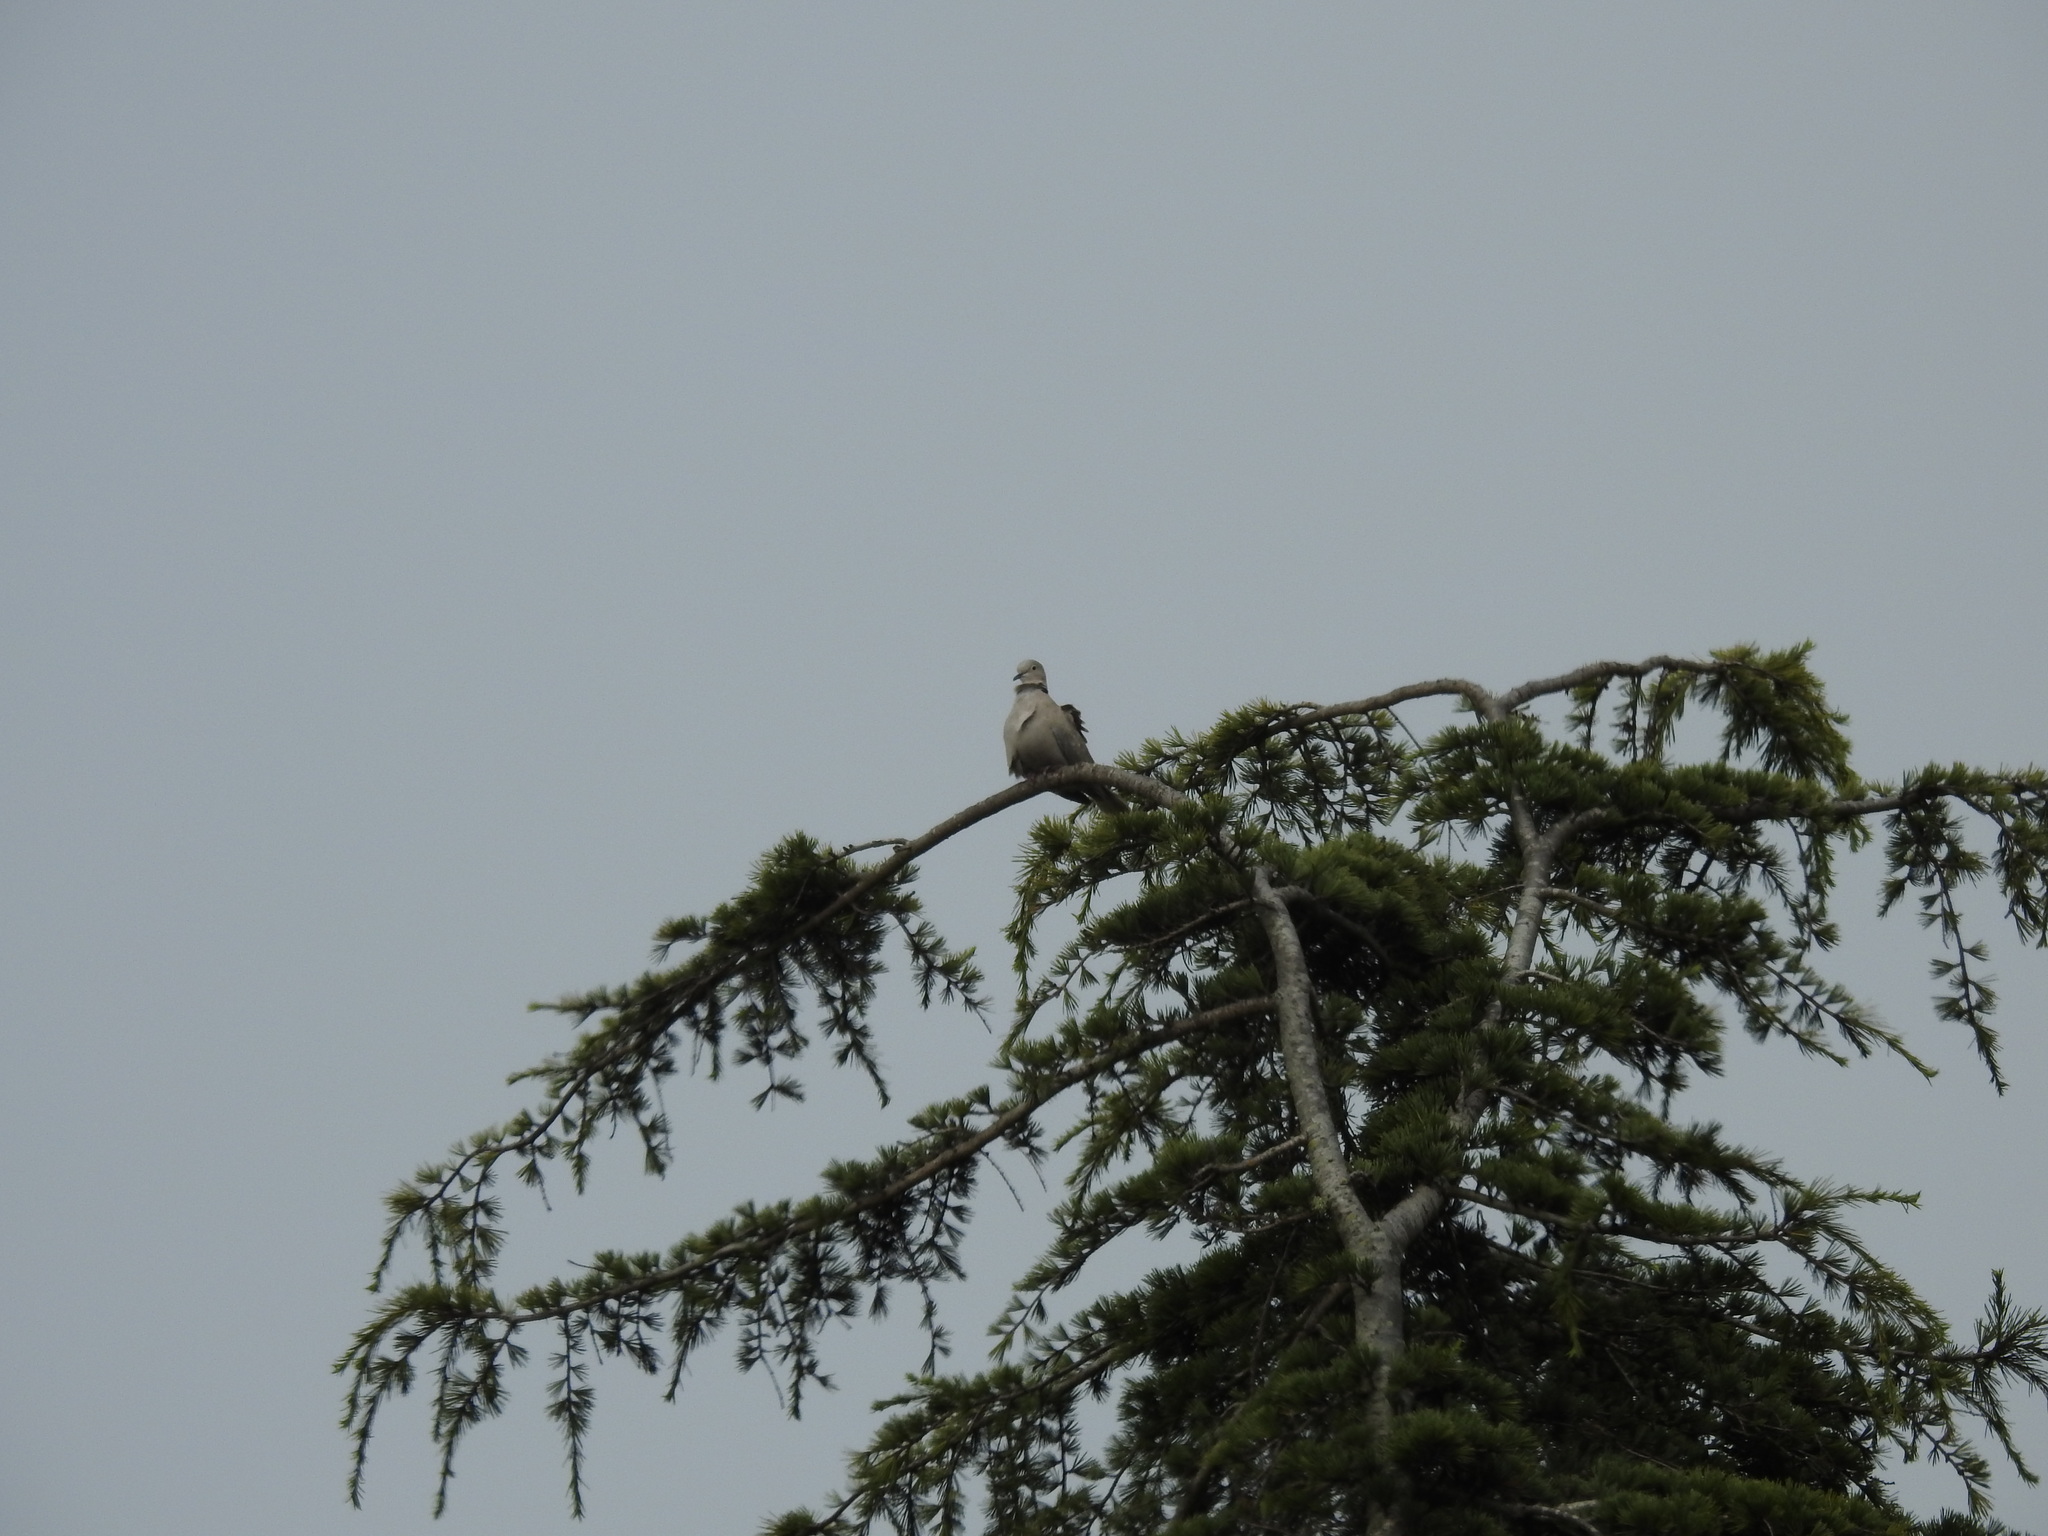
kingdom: Animalia
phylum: Chordata
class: Aves
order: Columbiformes
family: Columbidae
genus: Streptopelia
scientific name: Streptopelia decaocto
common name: Eurasian collared dove
